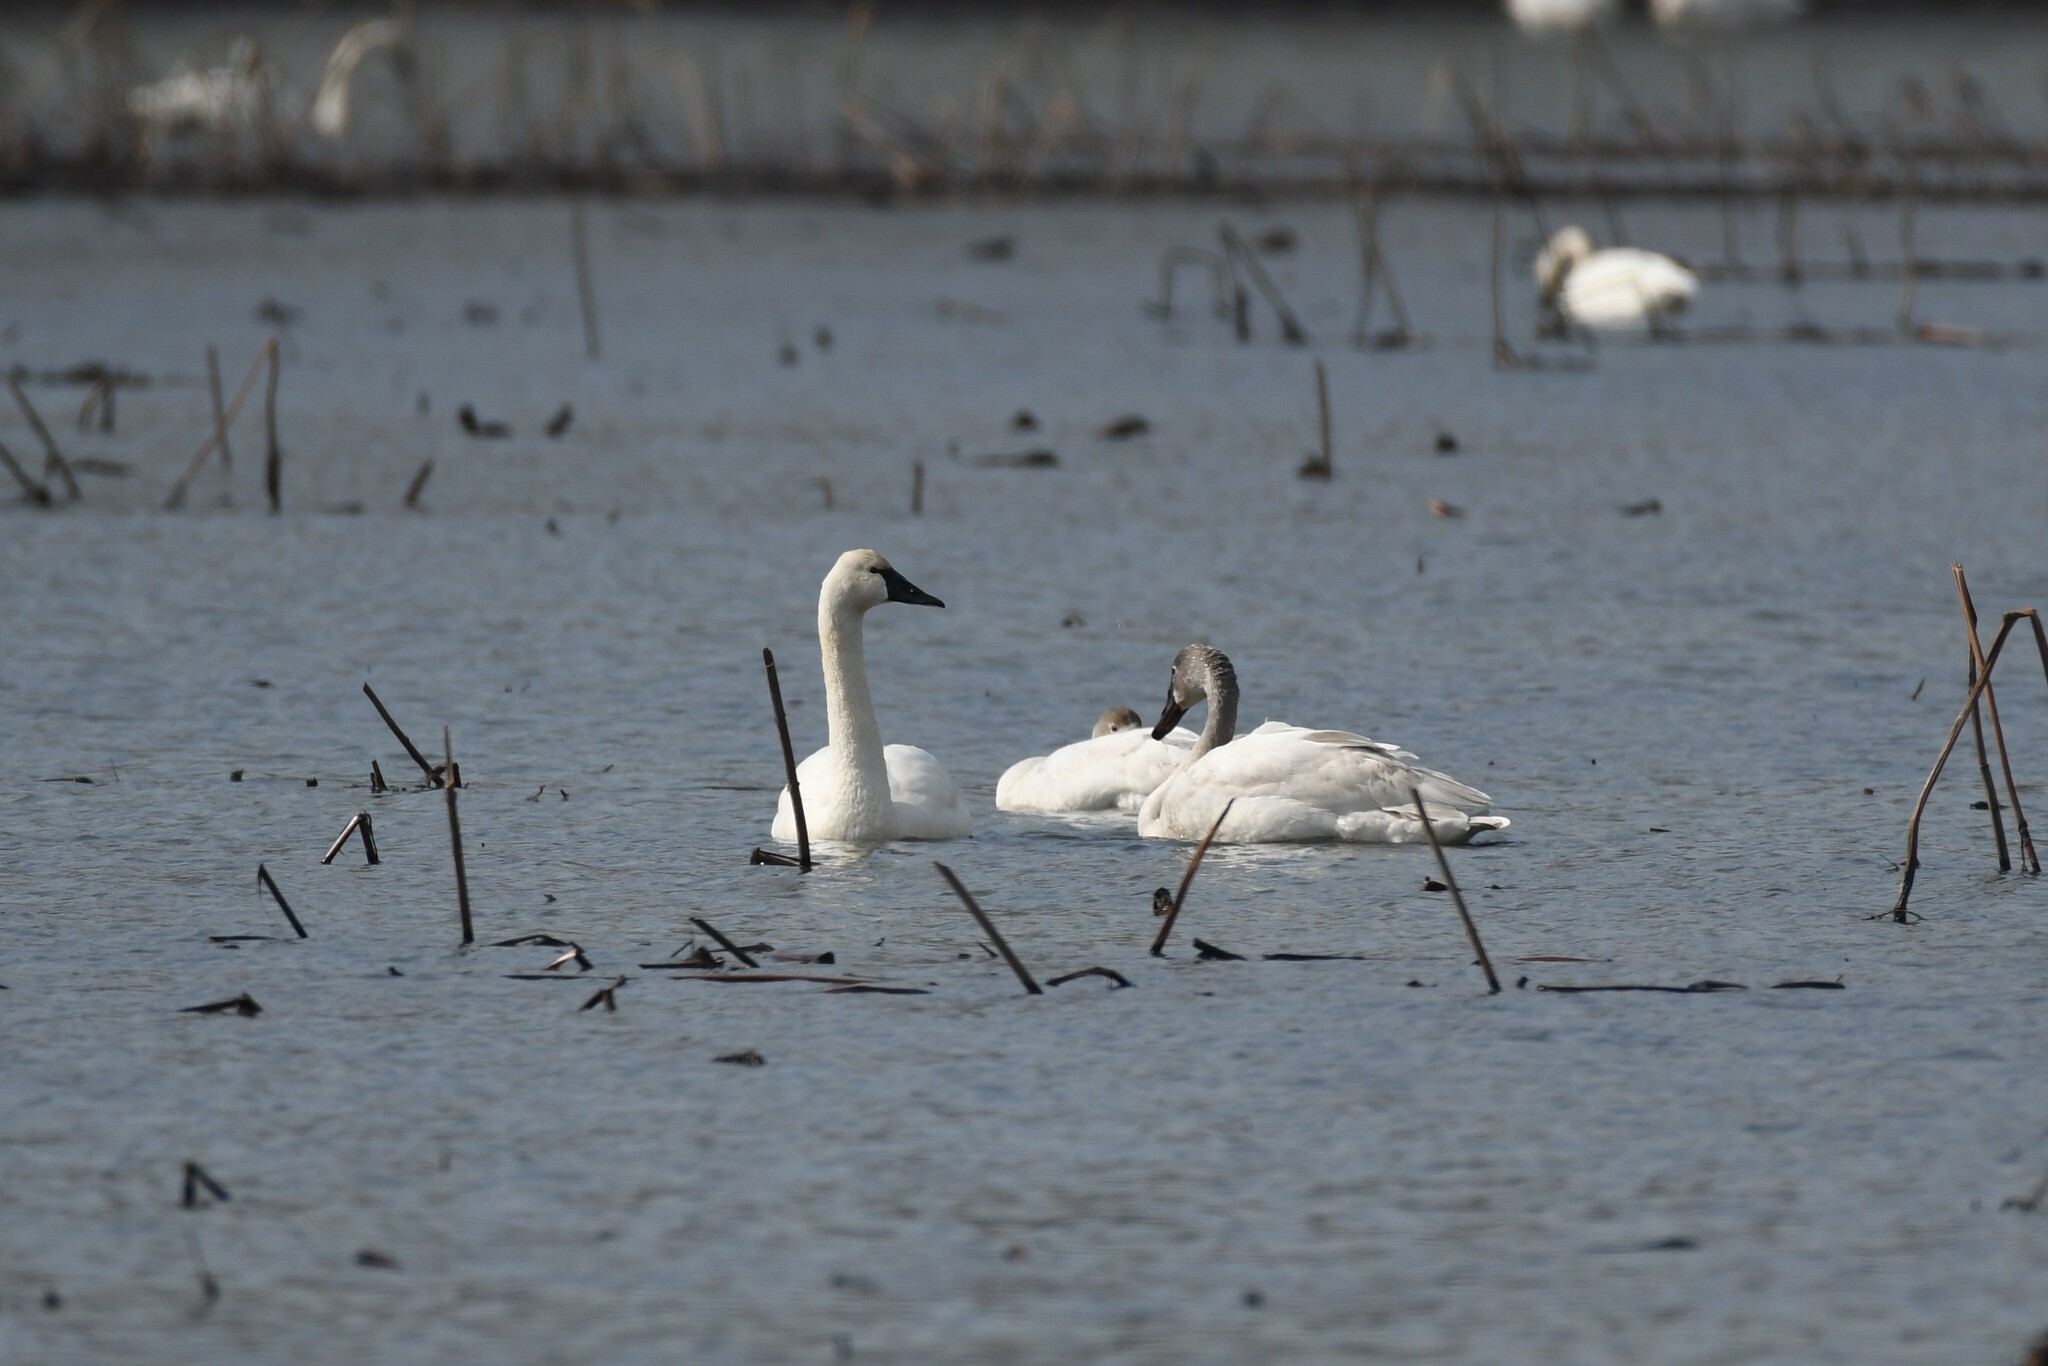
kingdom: Animalia
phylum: Chordata
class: Aves
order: Anseriformes
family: Anatidae
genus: Cygnus
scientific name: Cygnus columbianus
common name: Tundra swan
